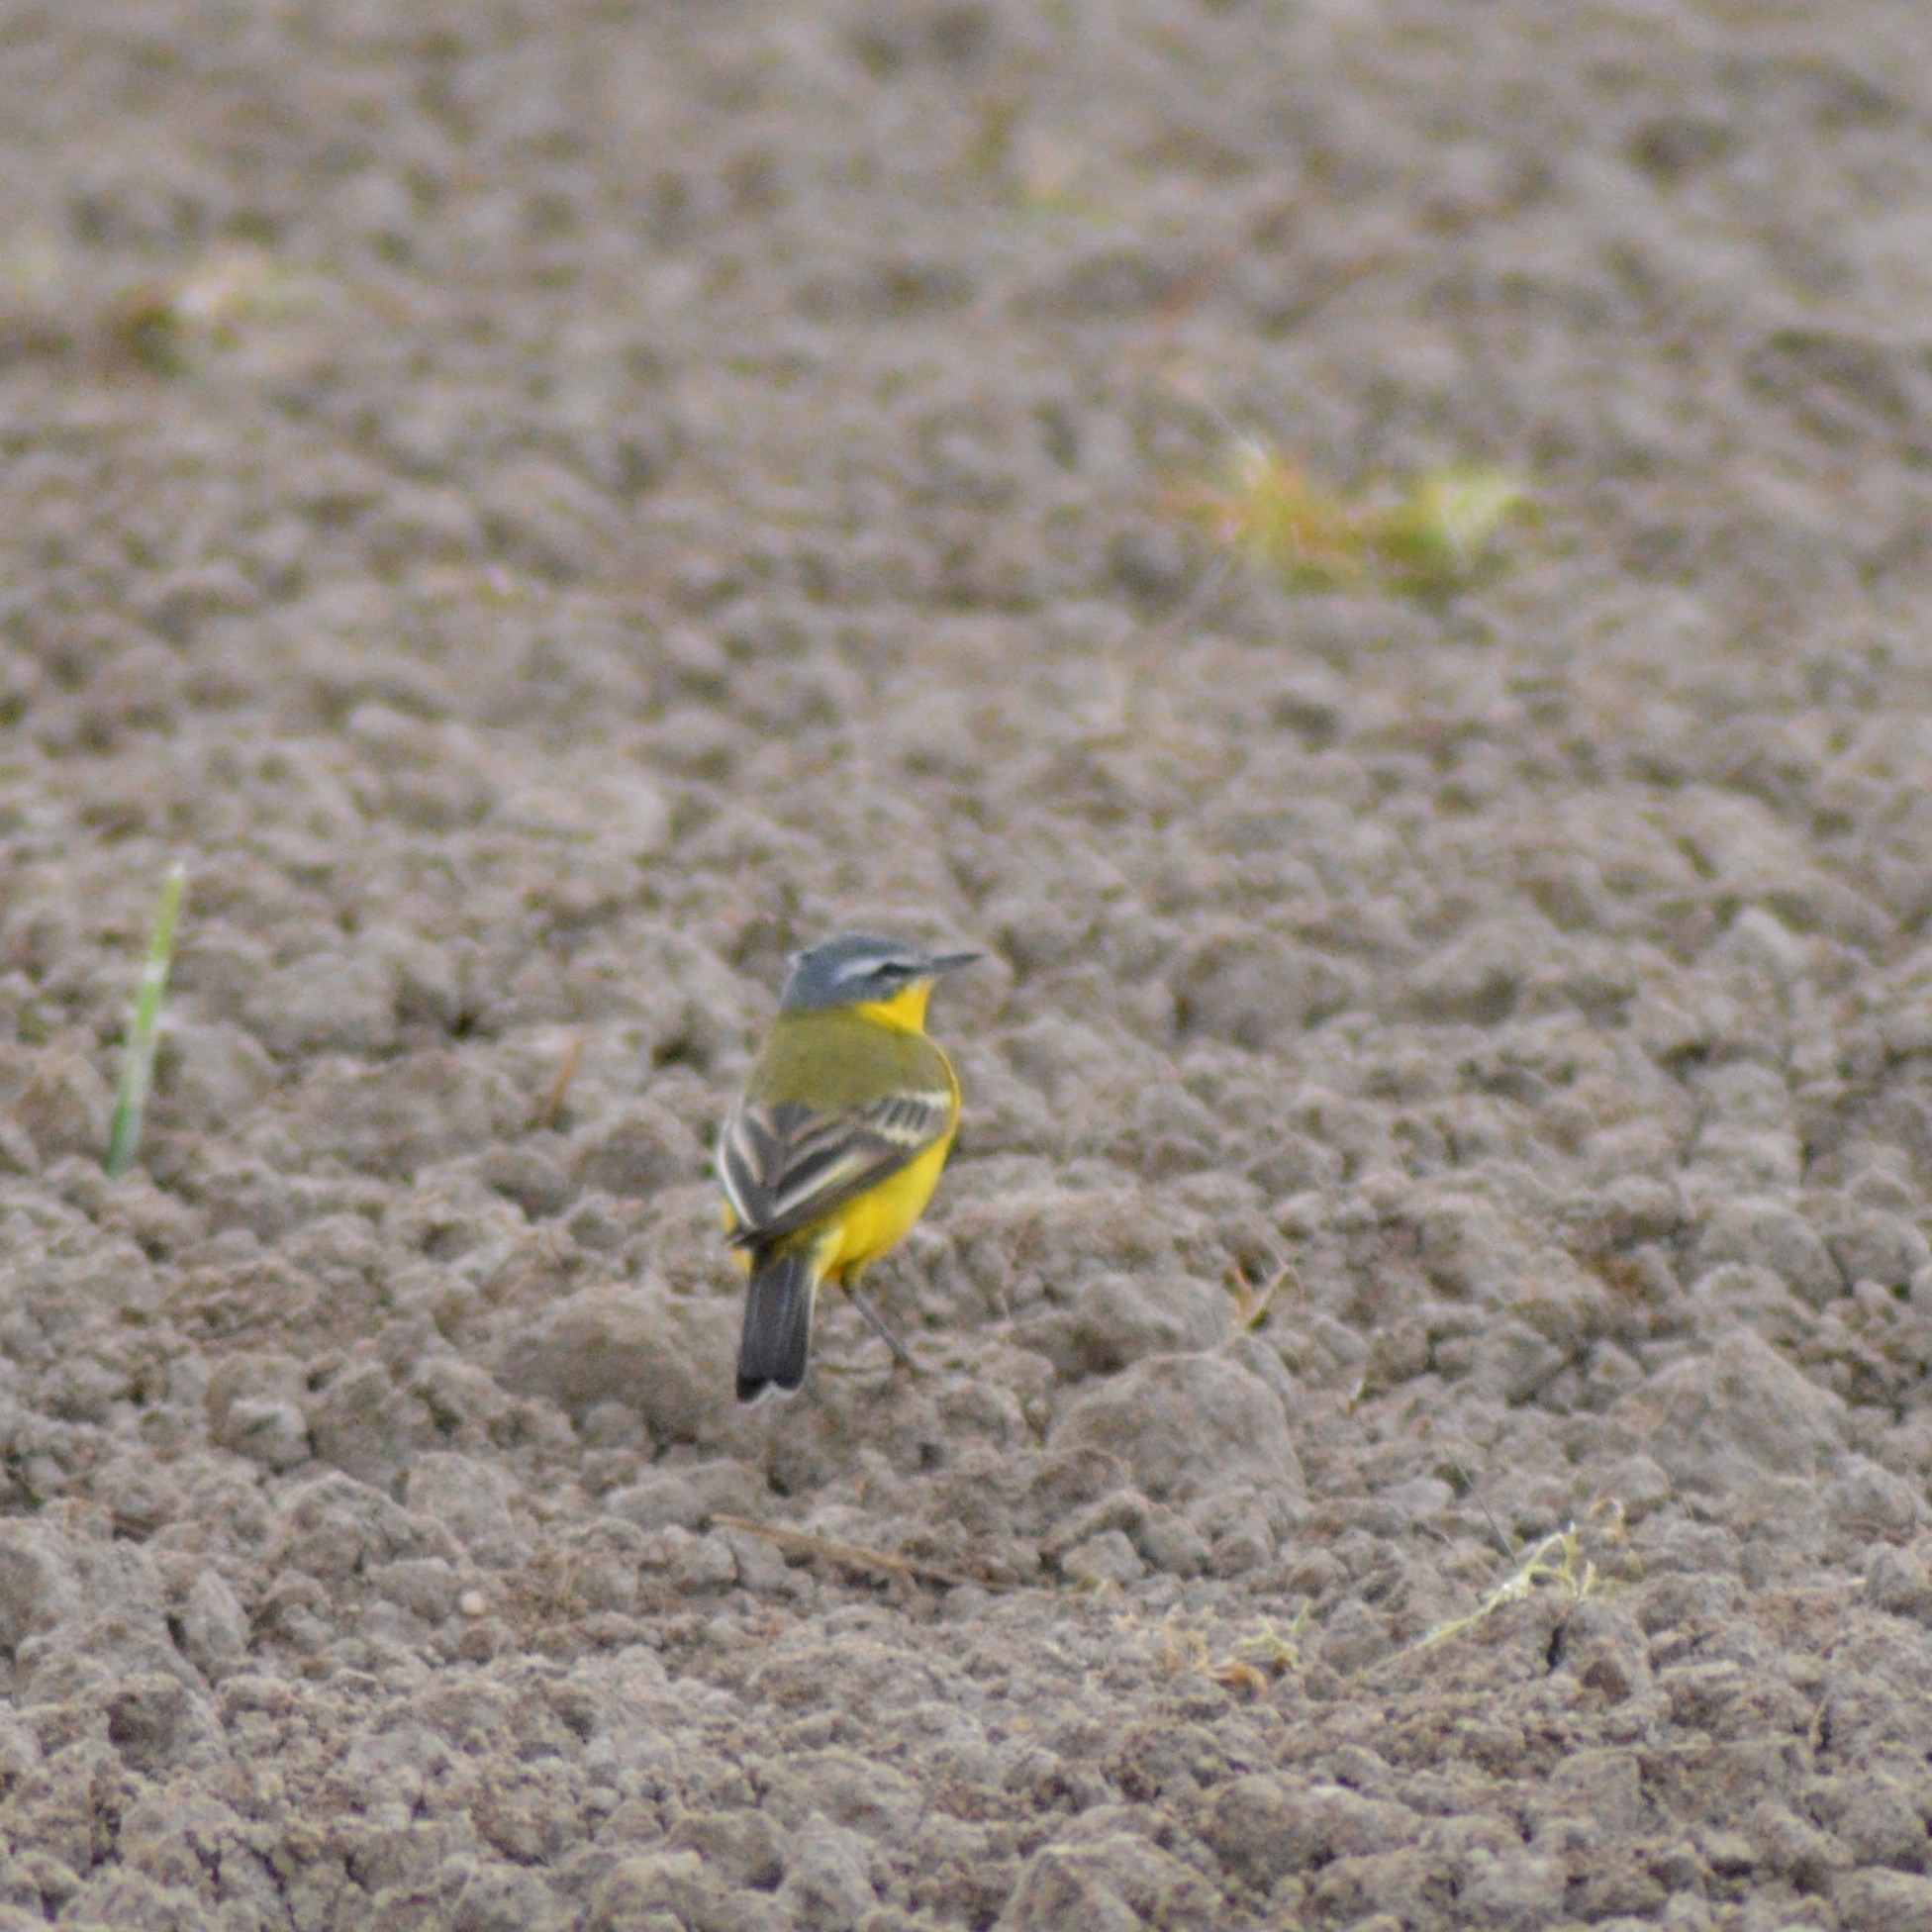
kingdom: Animalia
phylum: Chordata
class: Aves
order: Passeriformes
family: Motacillidae
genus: Motacilla
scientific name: Motacilla flava
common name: Western yellow wagtail
